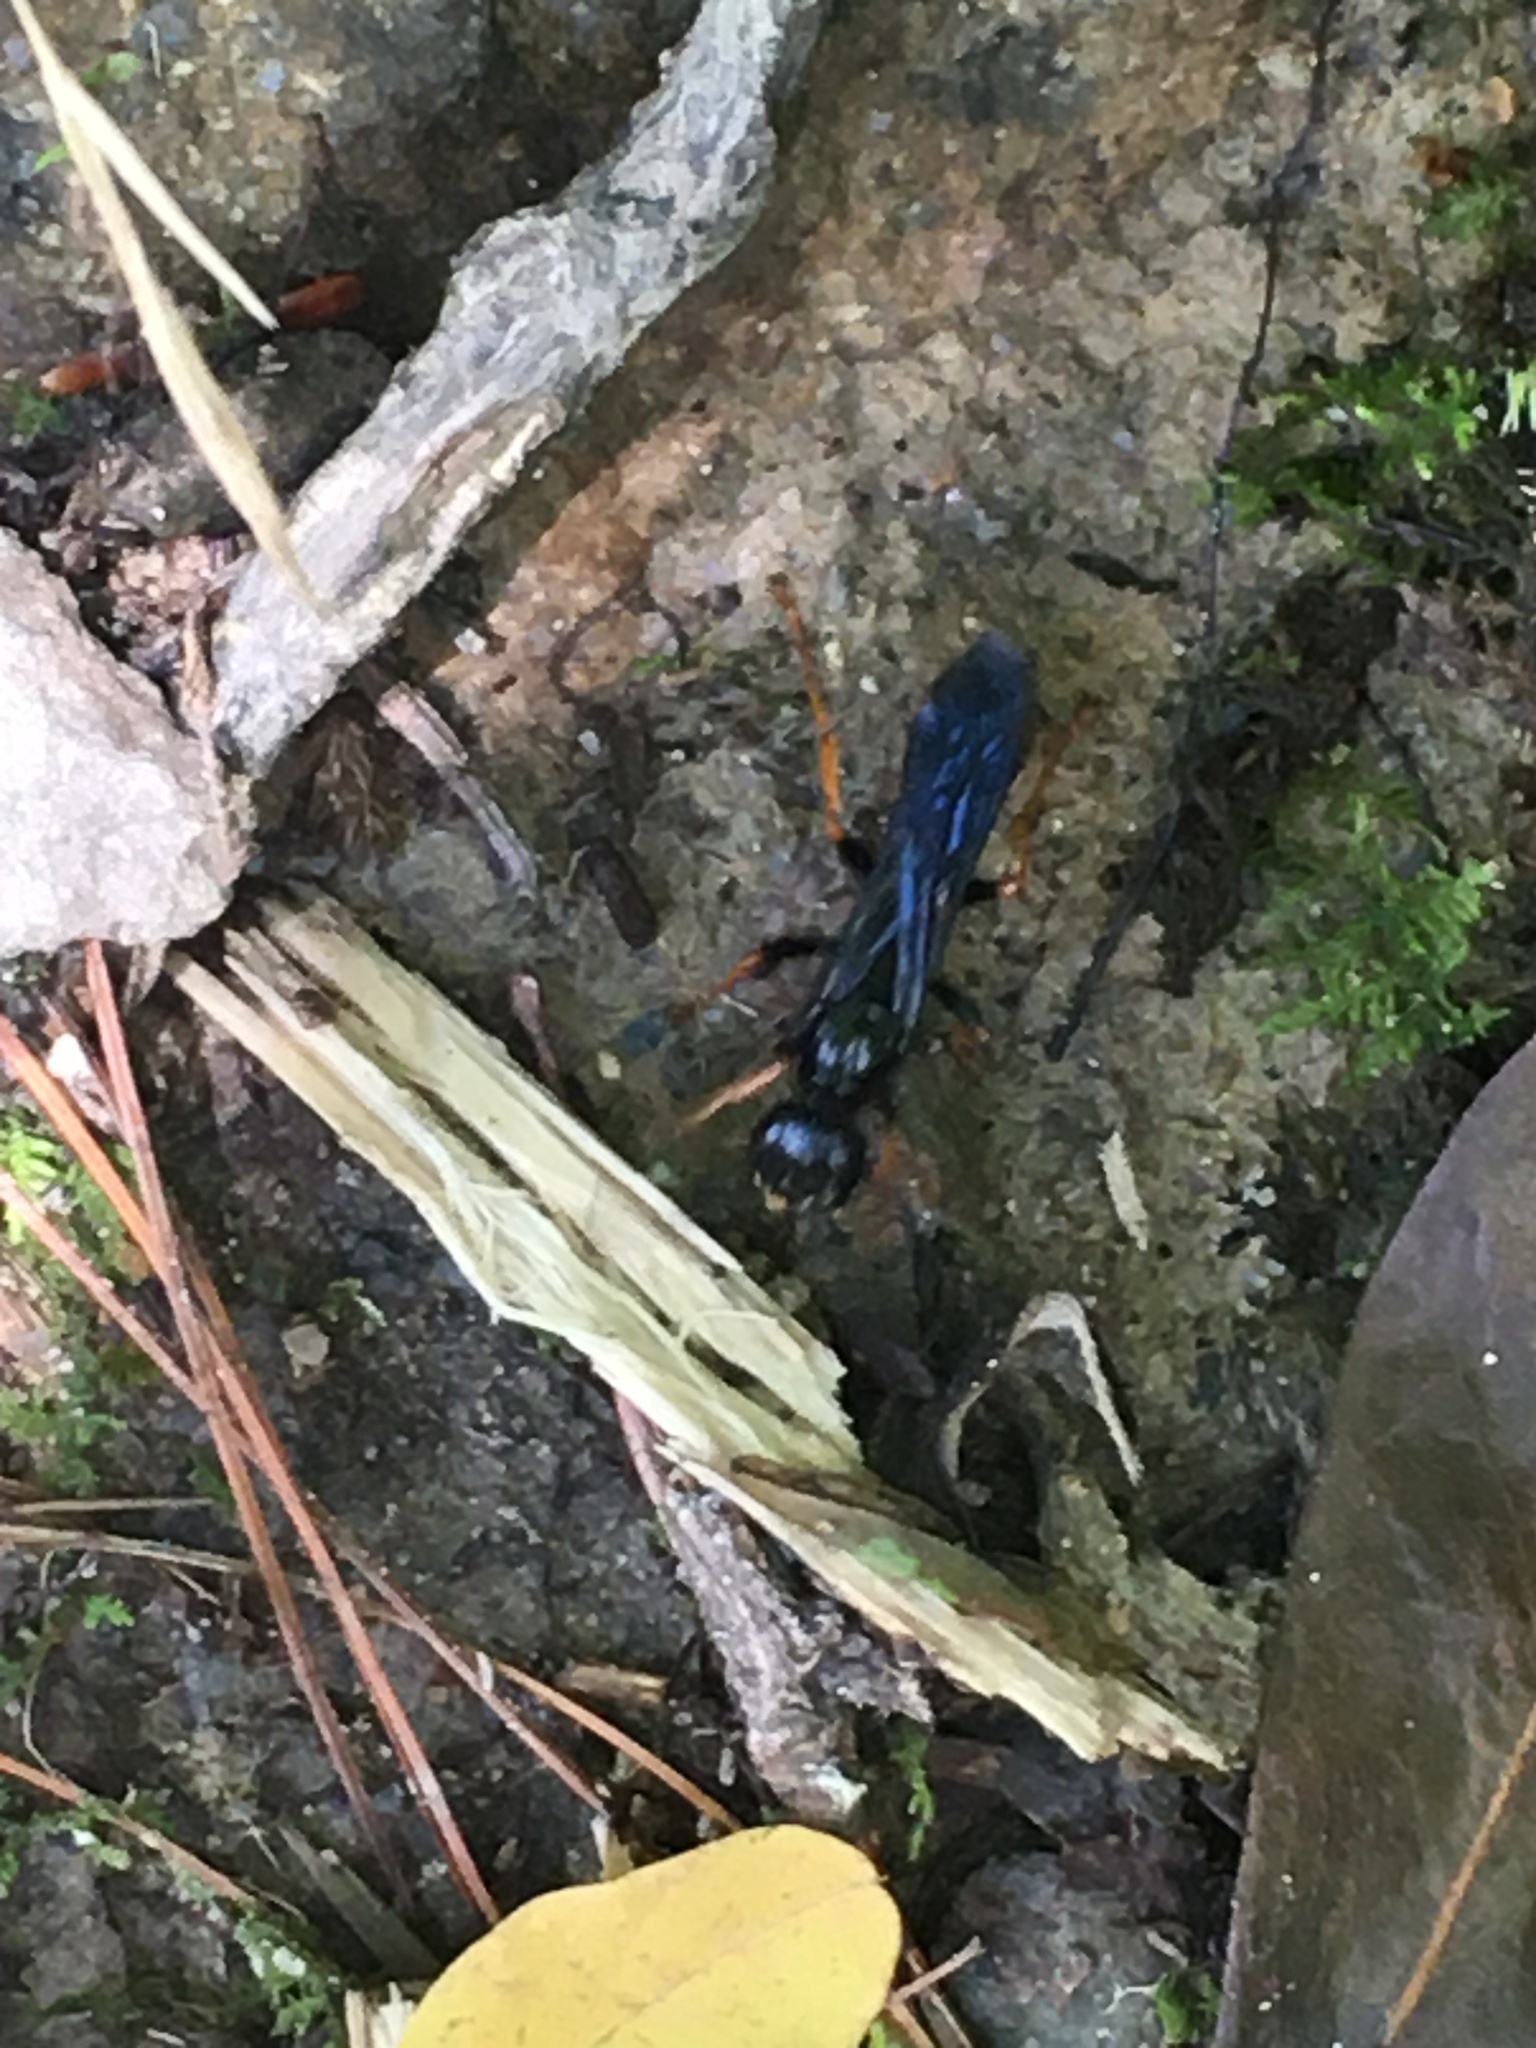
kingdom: Animalia
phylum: Arthropoda
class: Insecta
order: Hymenoptera
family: Sphecidae
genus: Podium
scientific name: Podium luctuosum
